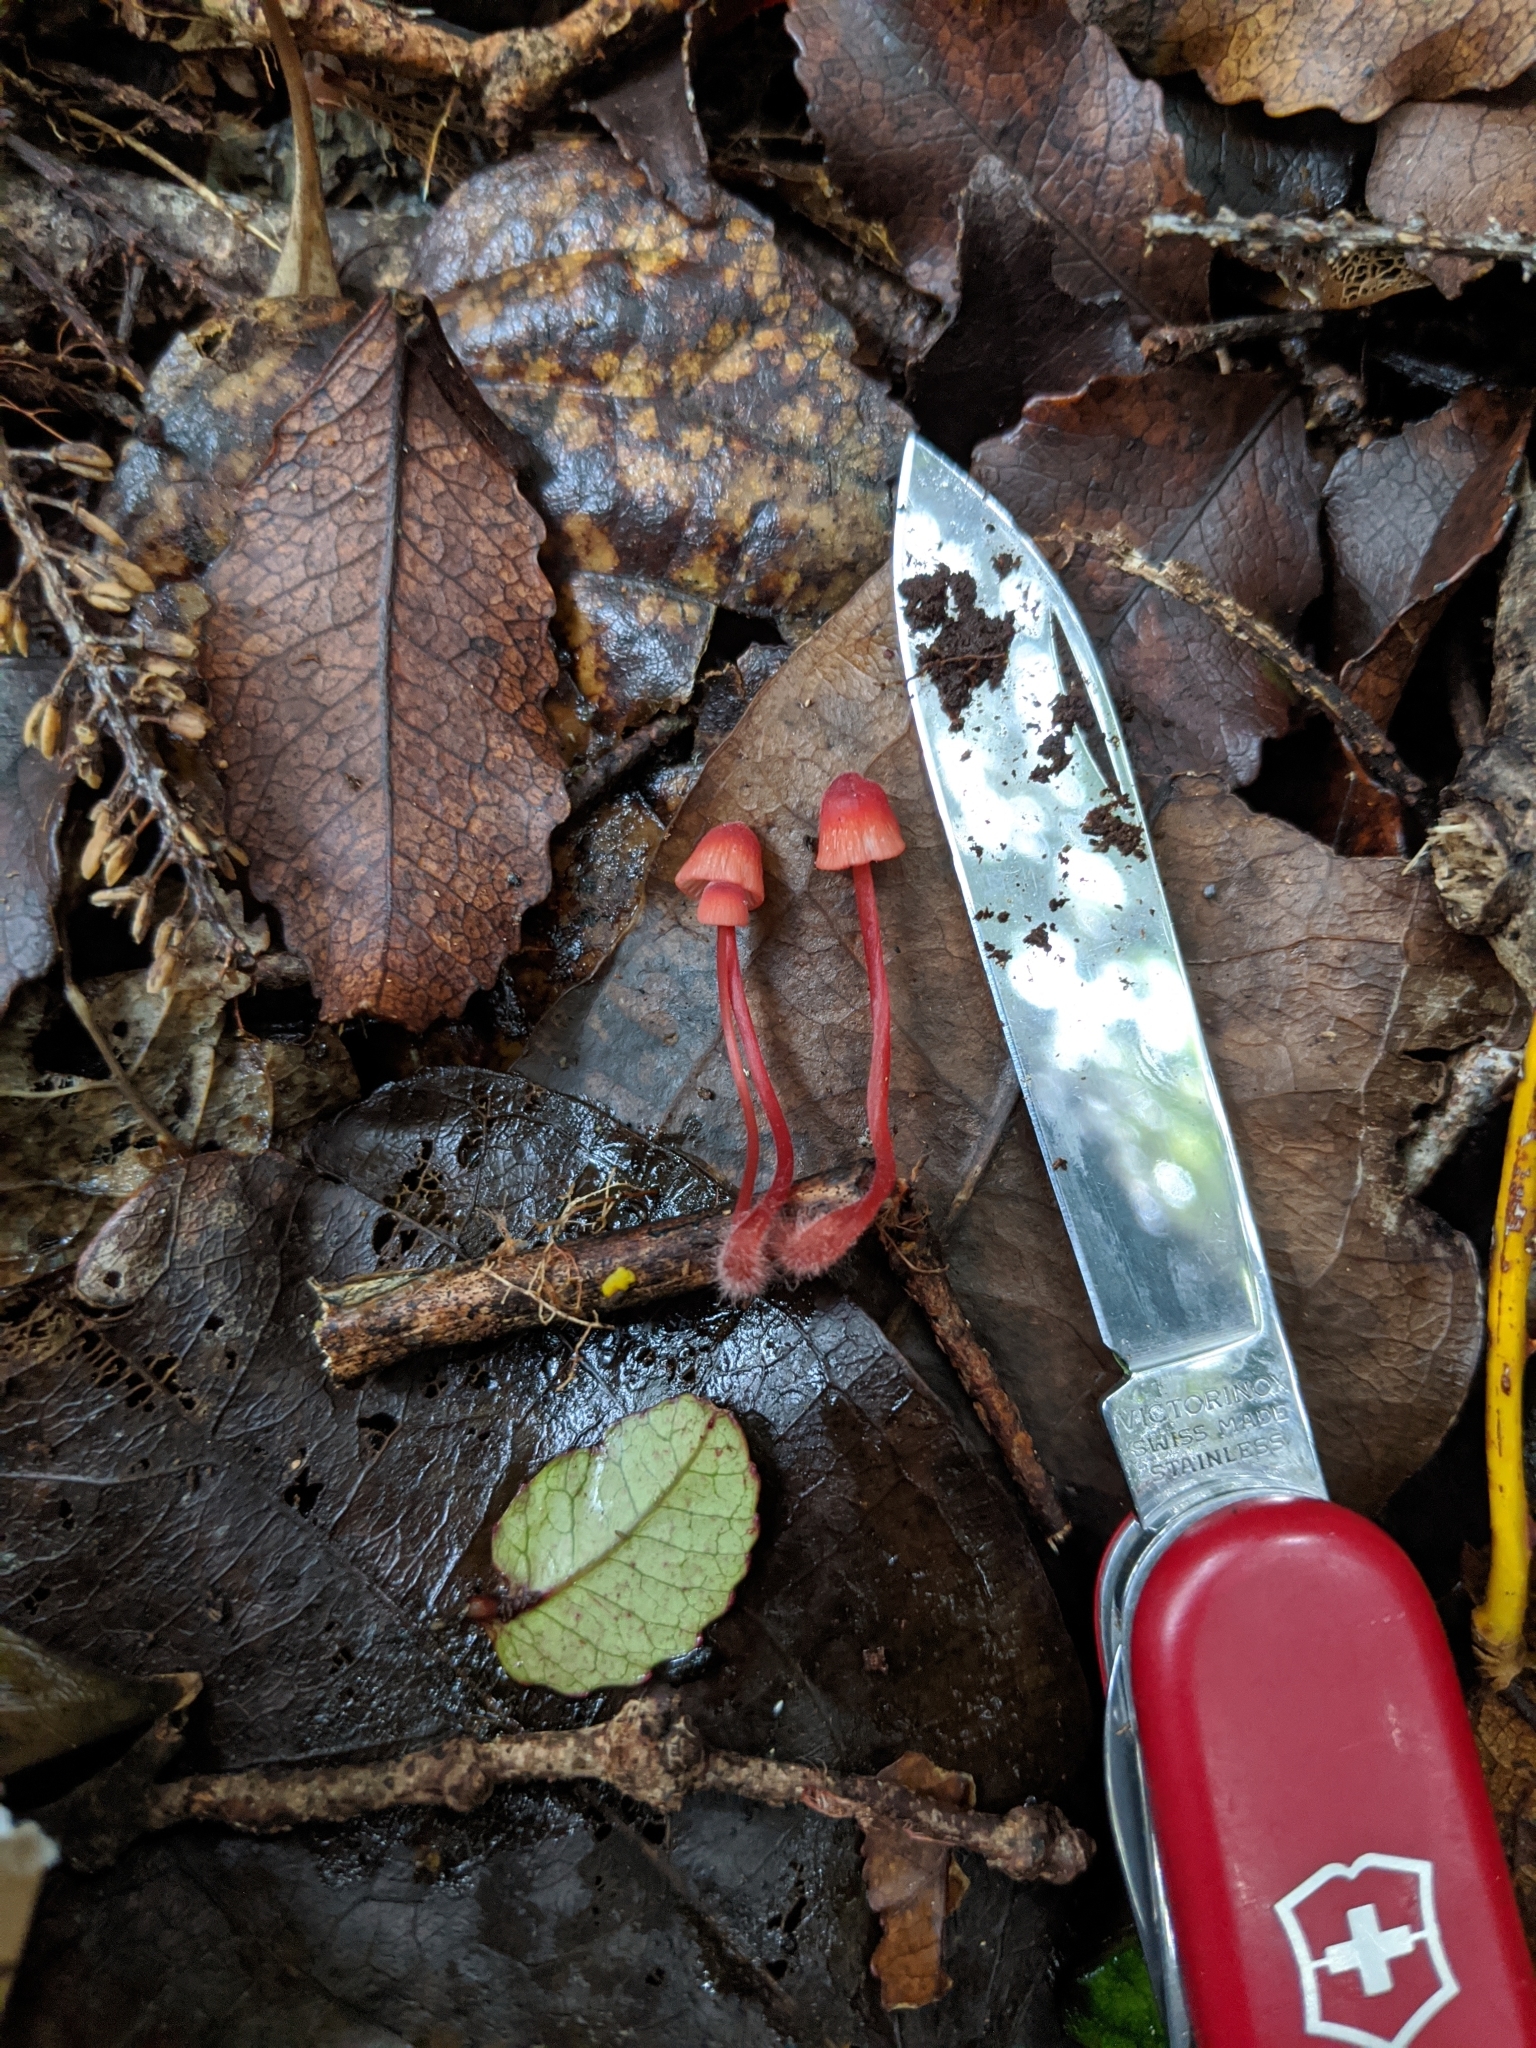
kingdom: Fungi
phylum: Basidiomycota
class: Agaricomycetes
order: Agaricales
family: Mycenaceae
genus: Mycena
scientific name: Mycena ura
